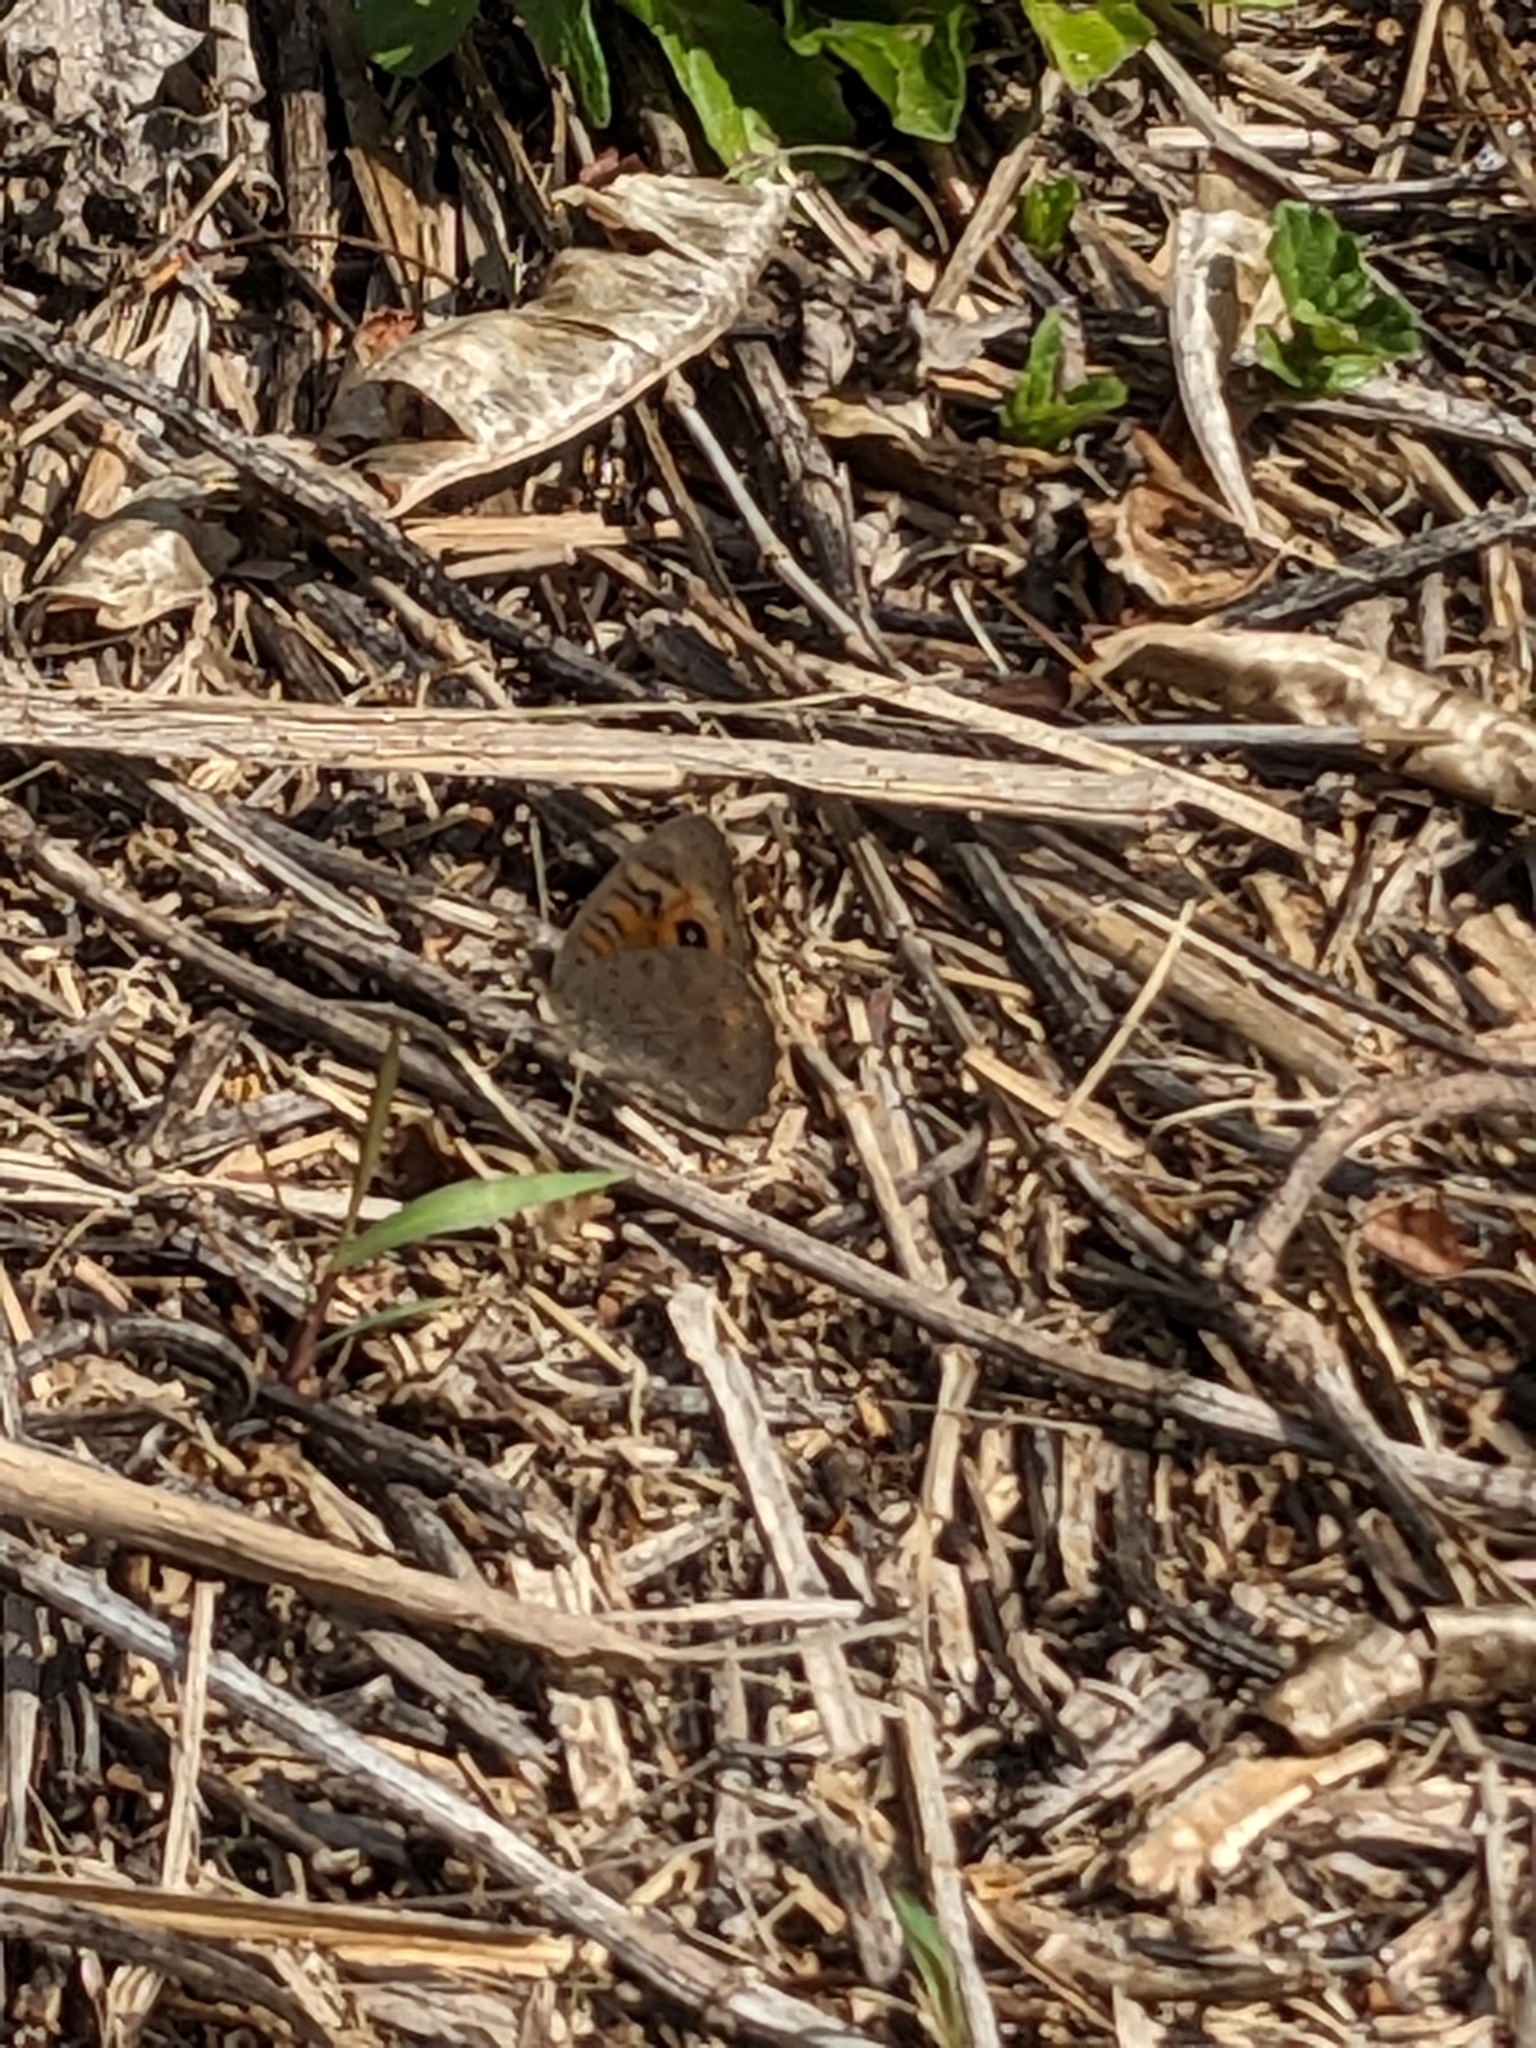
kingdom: Animalia
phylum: Arthropoda
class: Insecta
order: Lepidoptera
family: Nymphalidae
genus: Junonia
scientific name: Junonia villida
